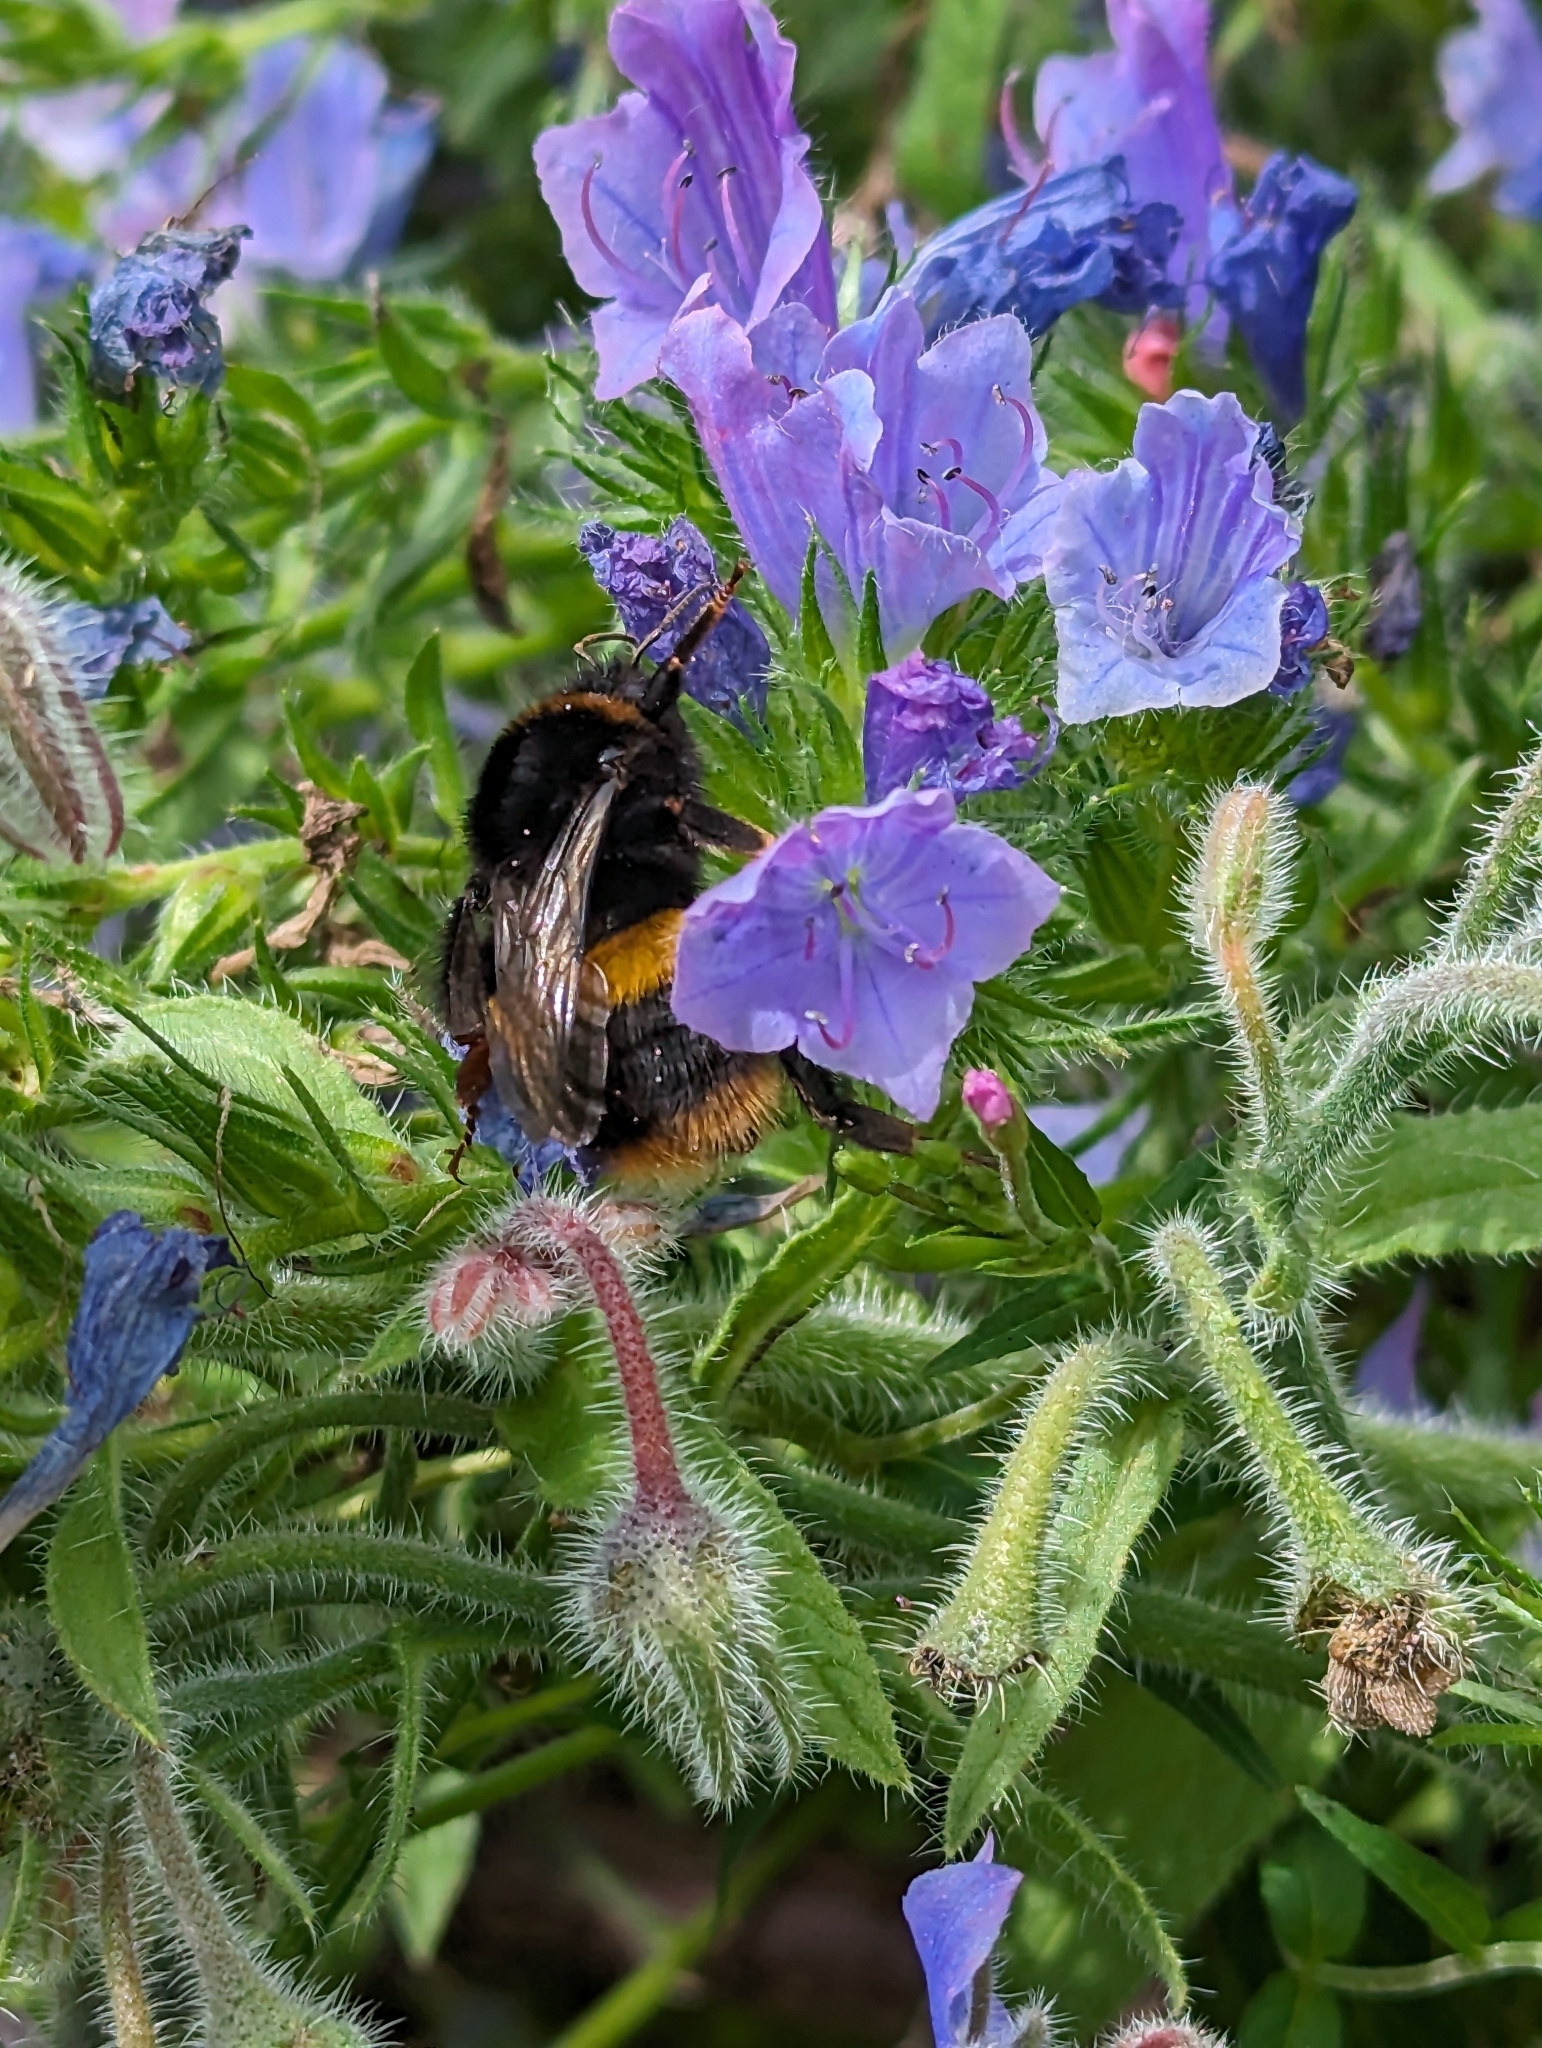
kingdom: Animalia
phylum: Arthropoda
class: Insecta
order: Hymenoptera
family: Apidae
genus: Bombus
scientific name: Bombus terrestris
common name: Buff-tailed bumblebee
